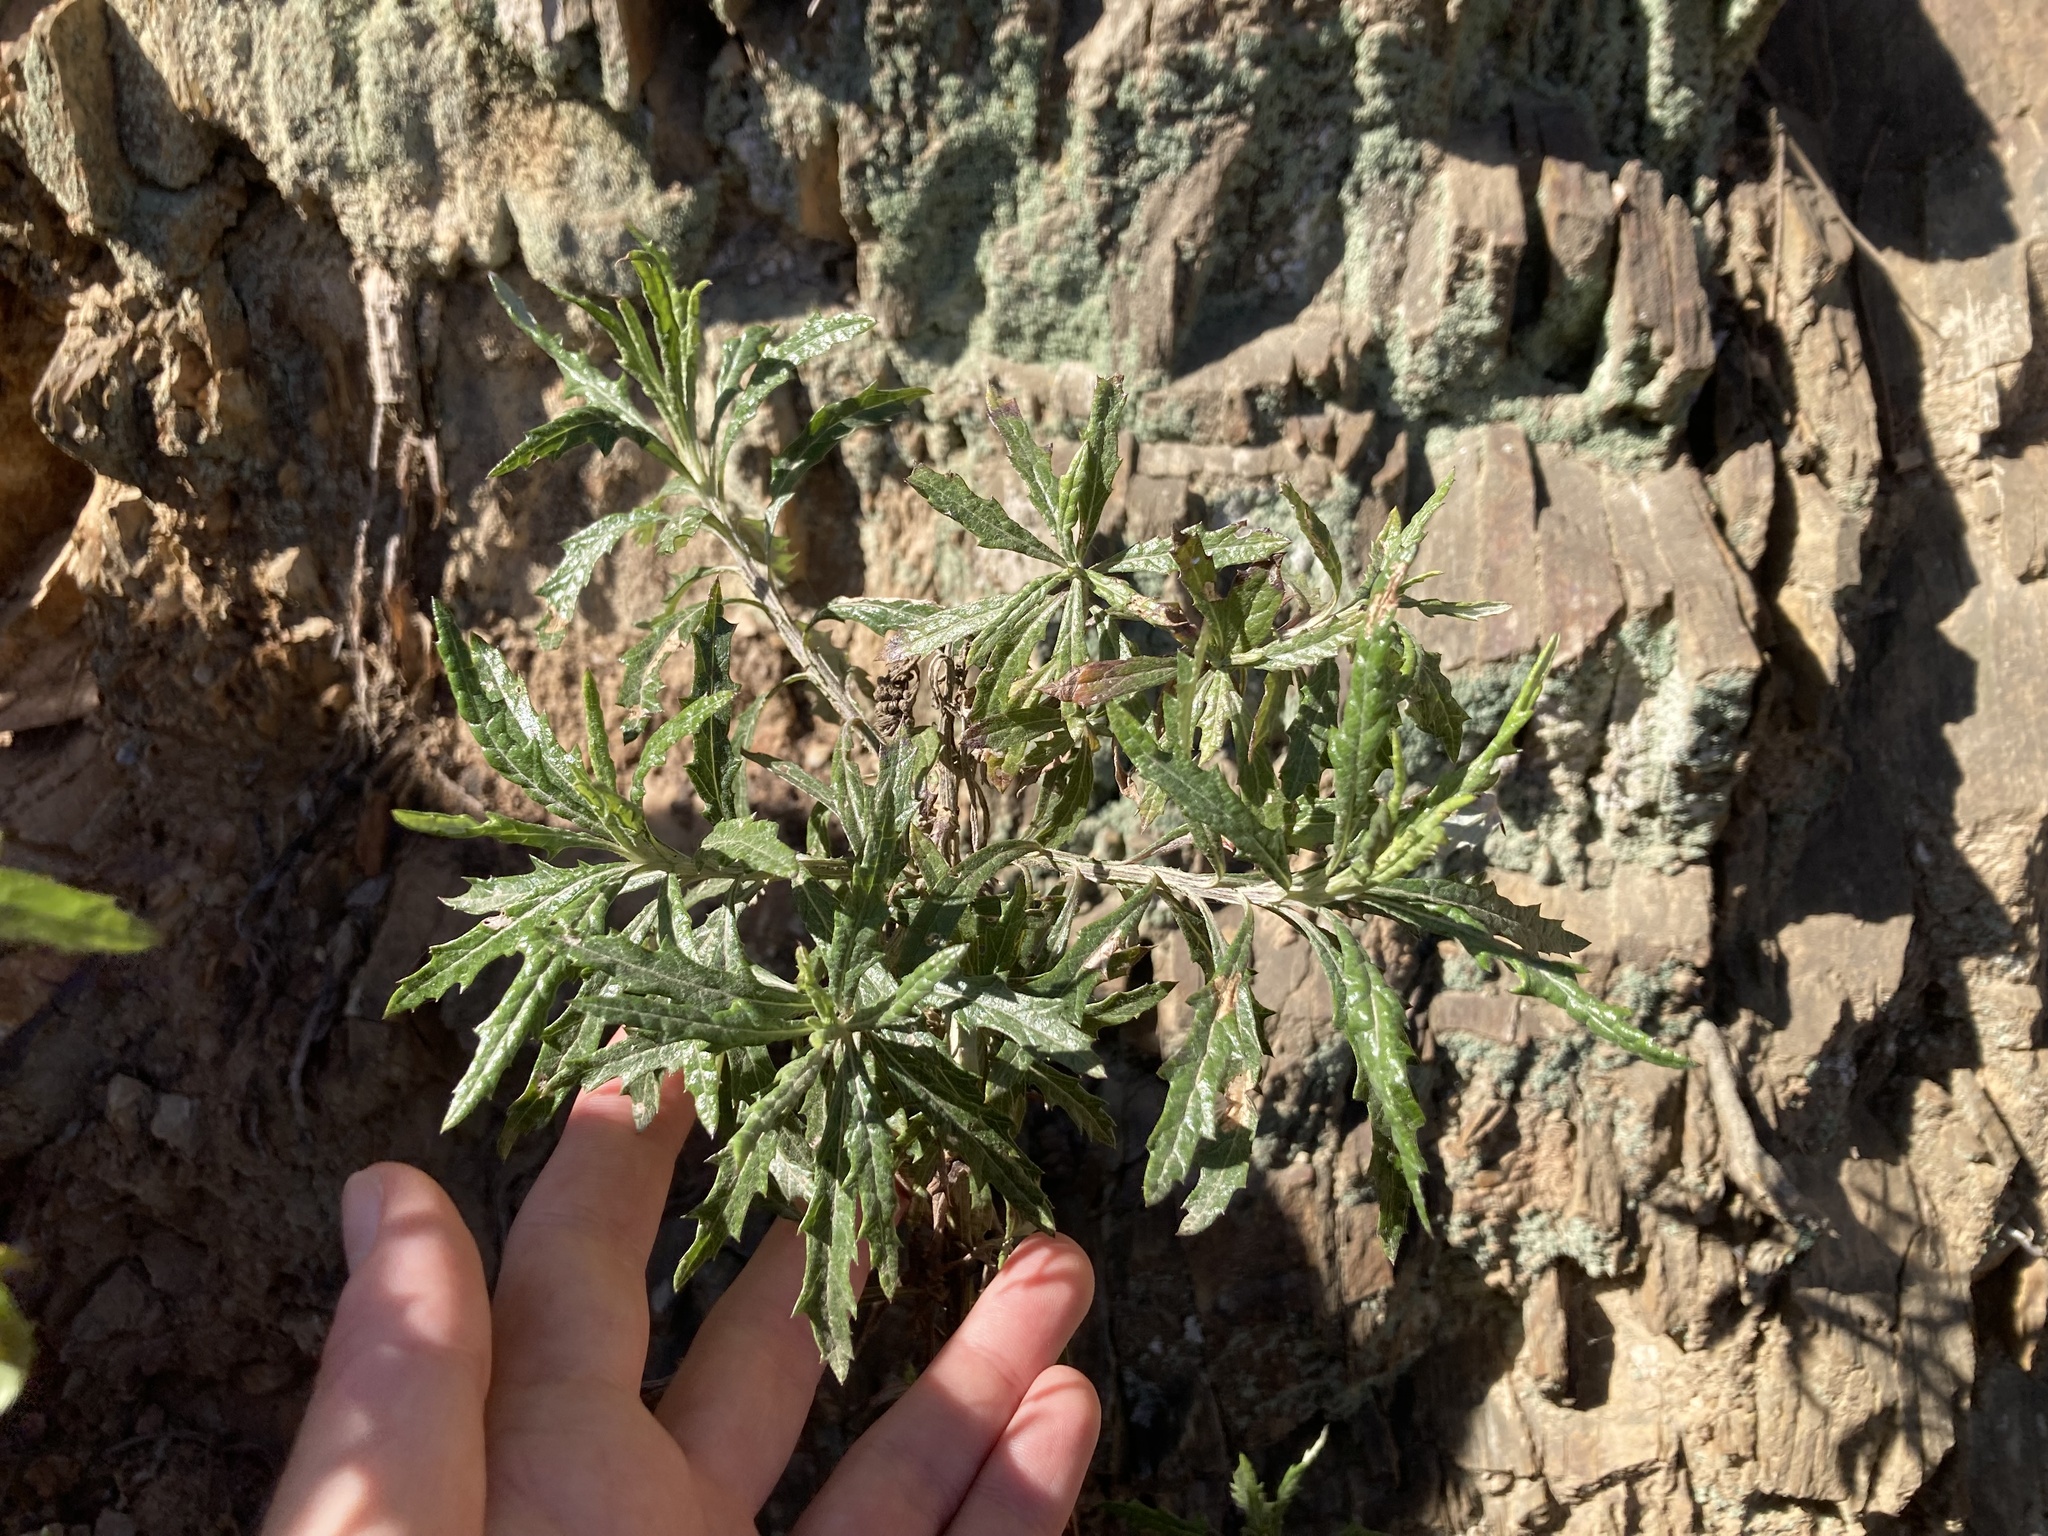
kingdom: Plantae
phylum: Tracheophyta
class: Magnoliopsida
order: Asterales
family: Asteraceae
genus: Senecio
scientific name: Senecio pterophorus
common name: Shoddy ragwort
